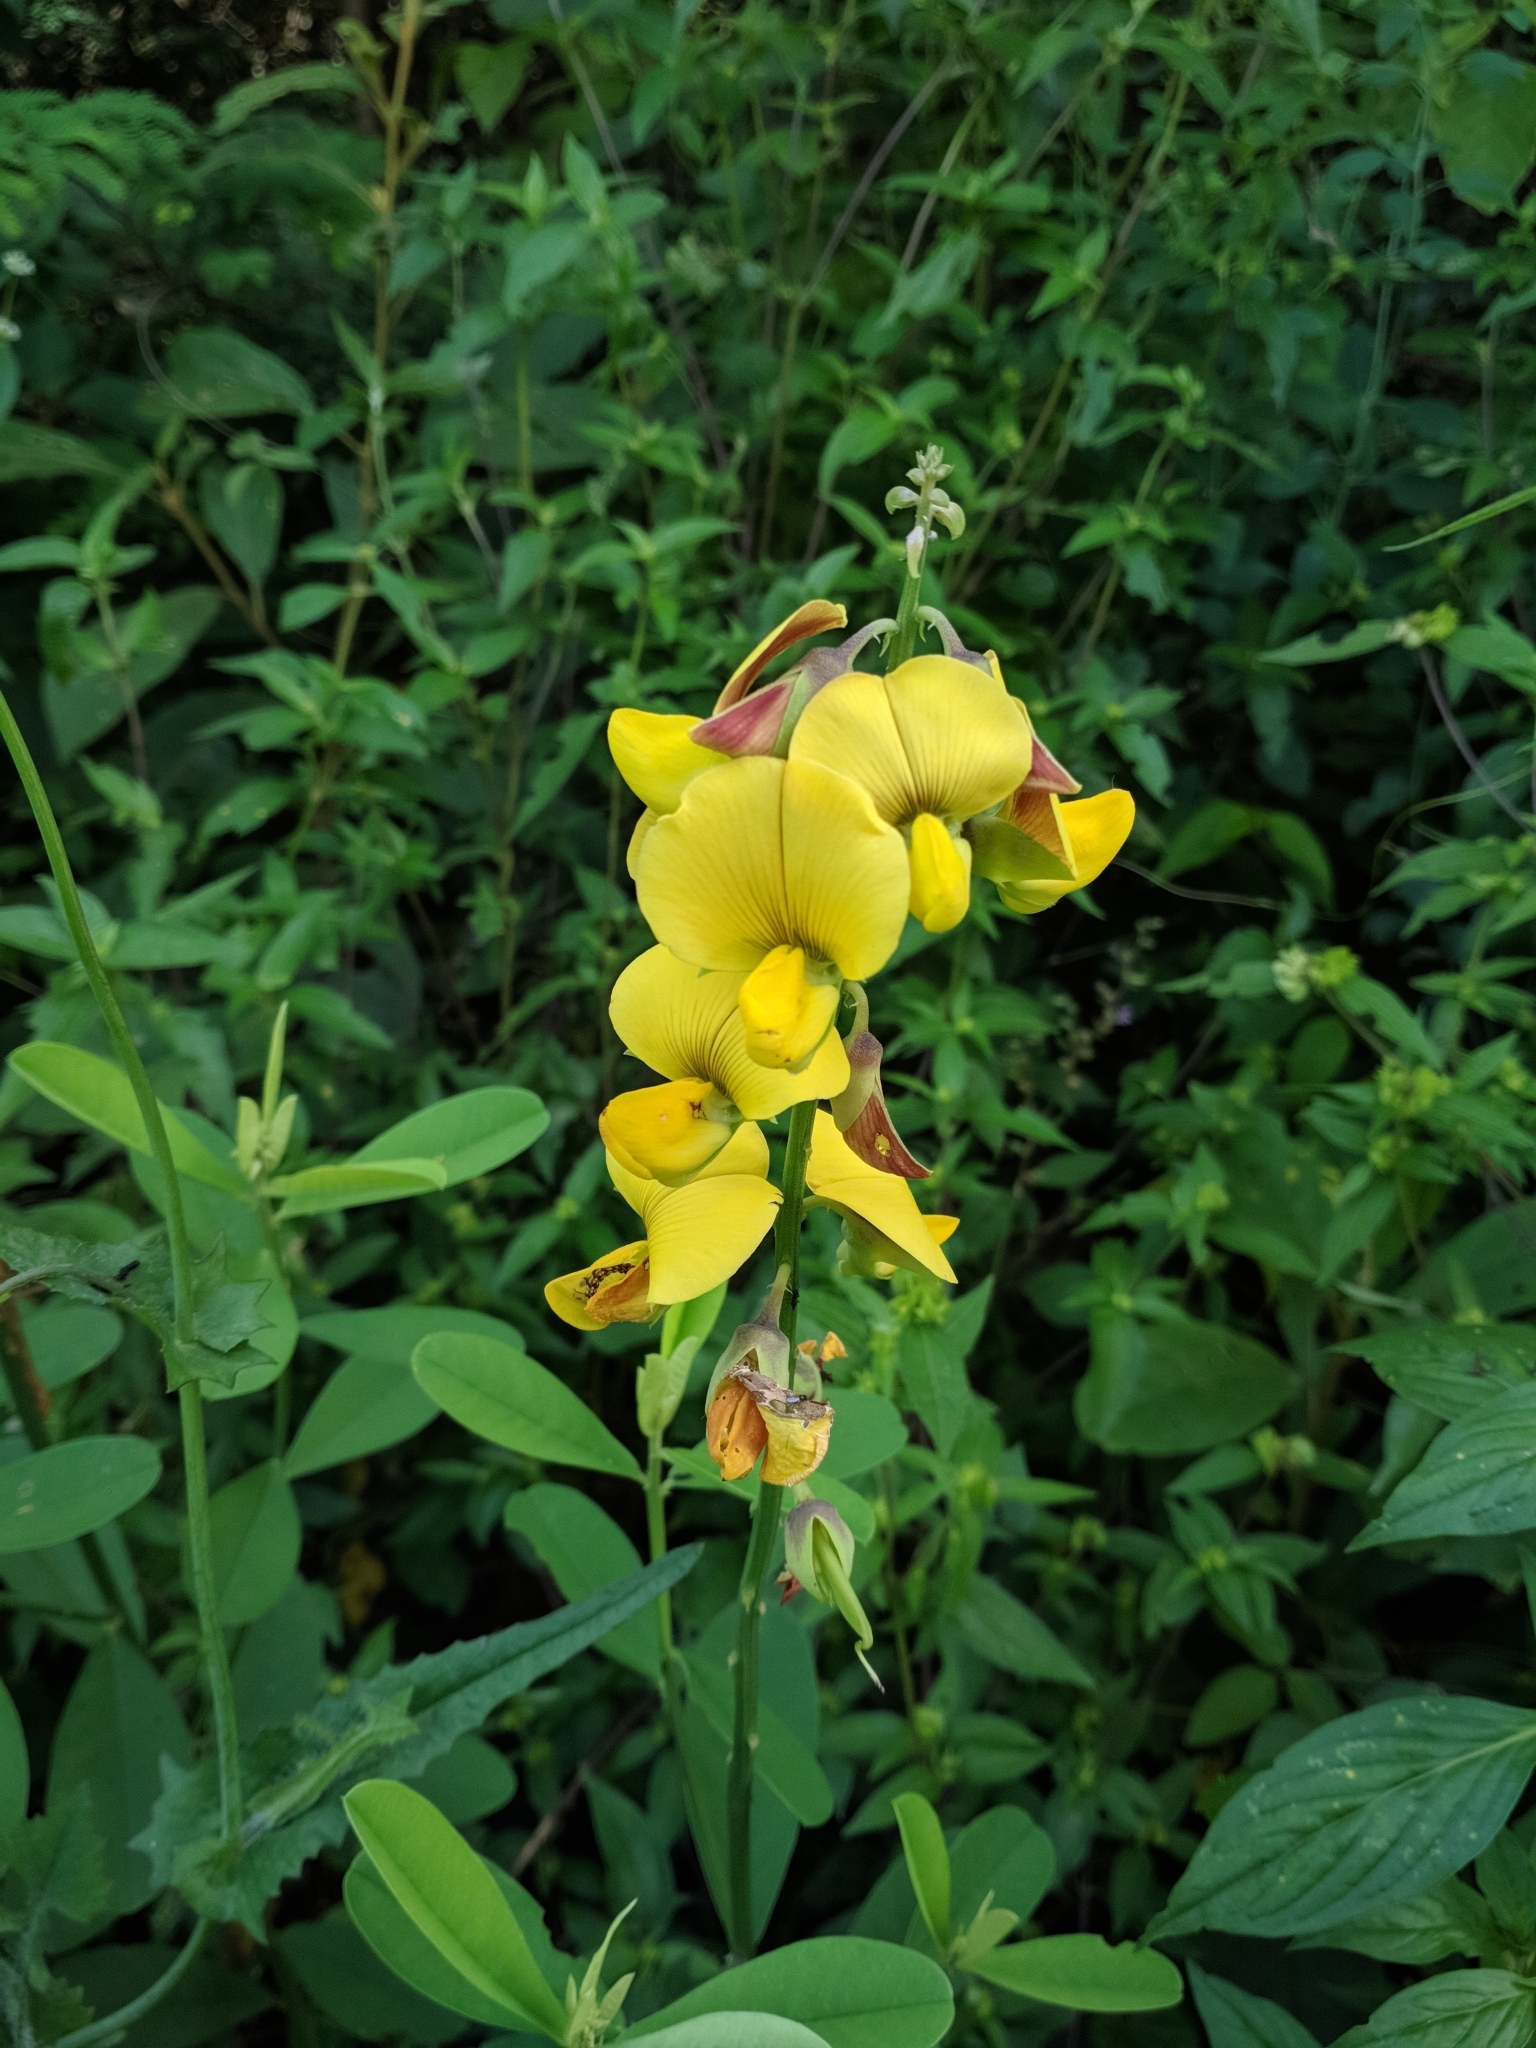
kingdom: Plantae
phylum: Tracheophyta
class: Magnoliopsida
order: Fabales
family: Fabaceae
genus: Crotalaria
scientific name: Crotalaria retusa
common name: Rattleweed
